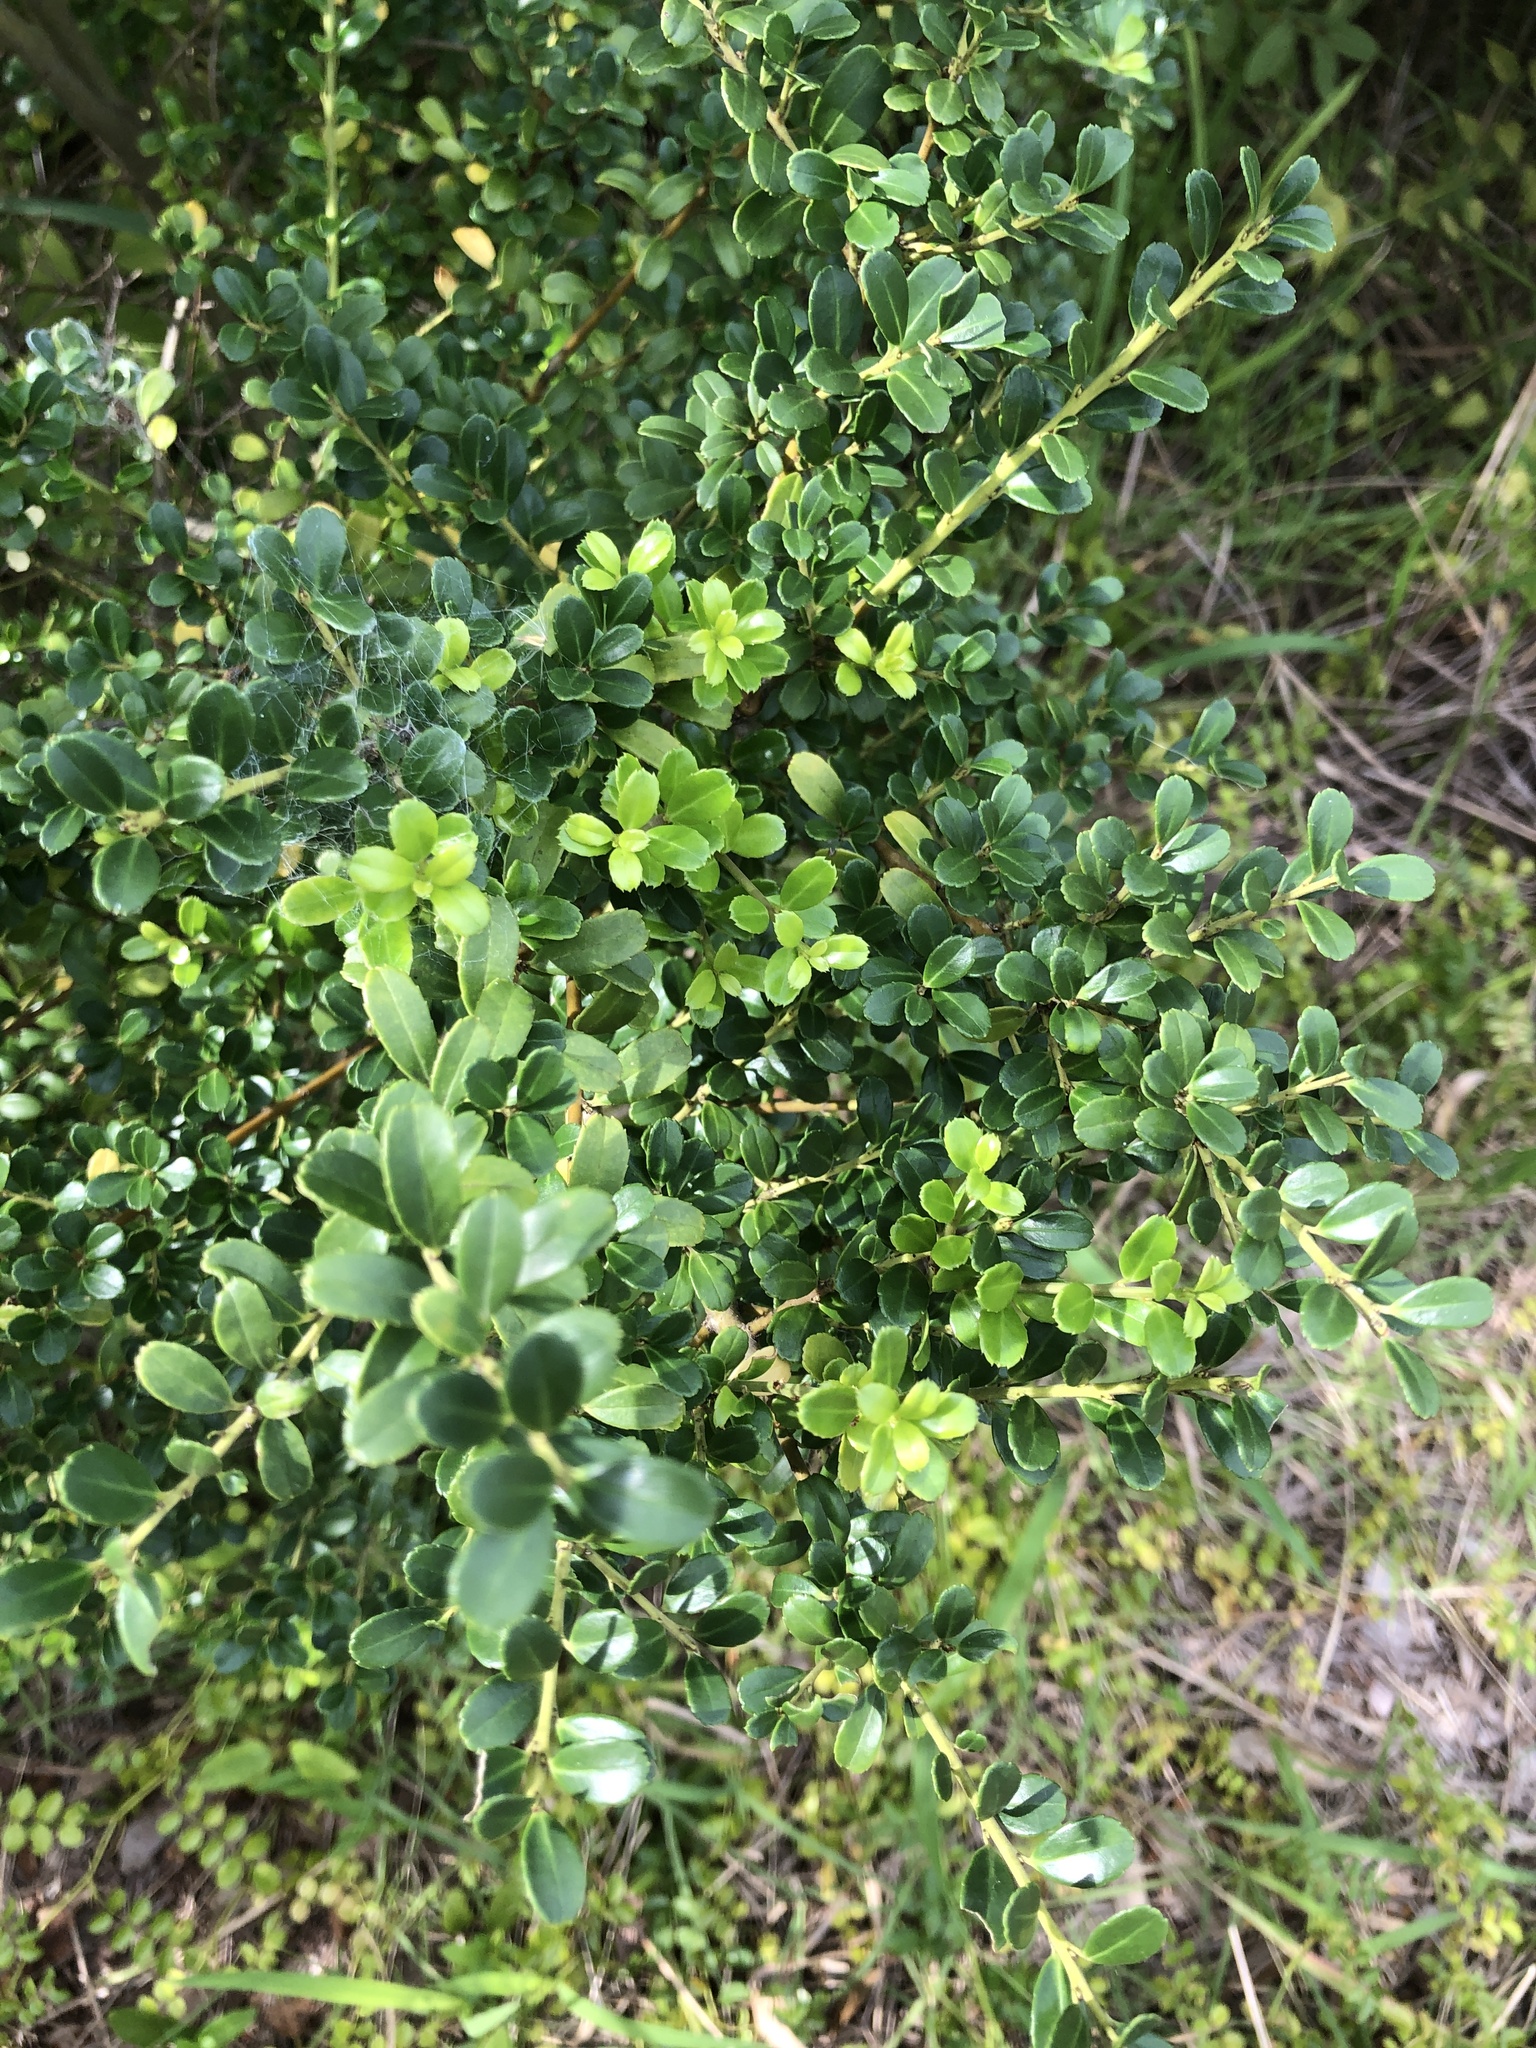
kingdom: Plantae
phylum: Tracheophyta
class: Magnoliopsida
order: Aquifoliales
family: Aquifoliaceae
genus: Ilex
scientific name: Ilex crenata
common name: Japanese holly
